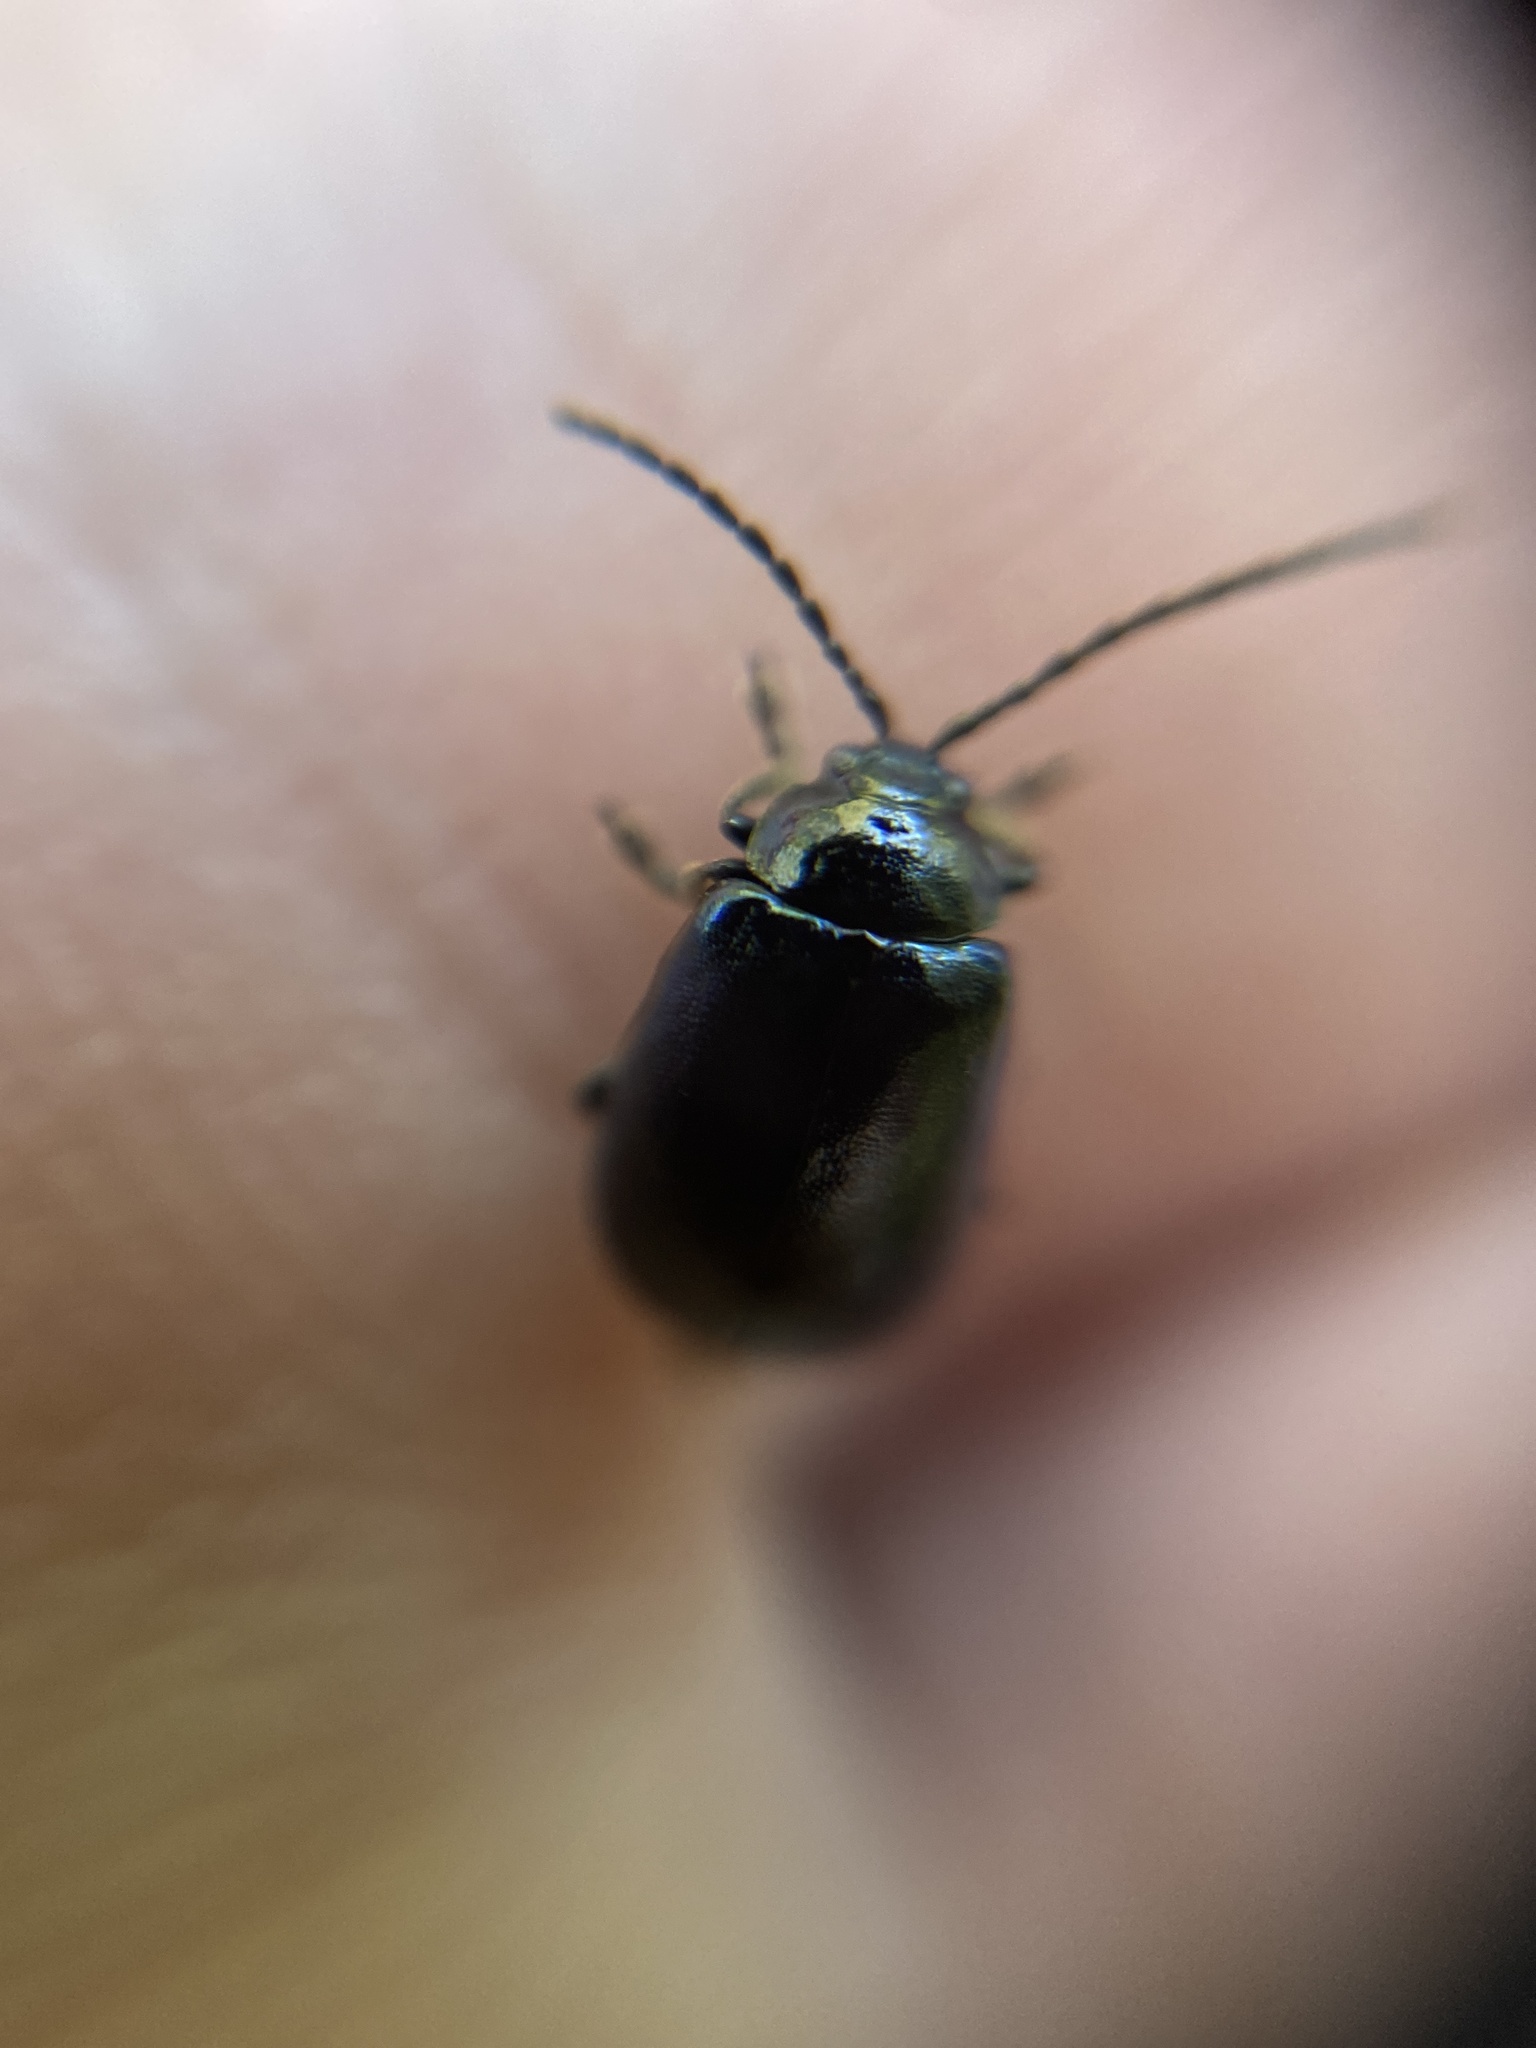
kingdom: Animalia
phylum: Arthropoda
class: Insecta
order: Coleoptera
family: Chrysomelidae
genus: Agelastica
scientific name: Agelastica alni
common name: Alder leaf beetle
